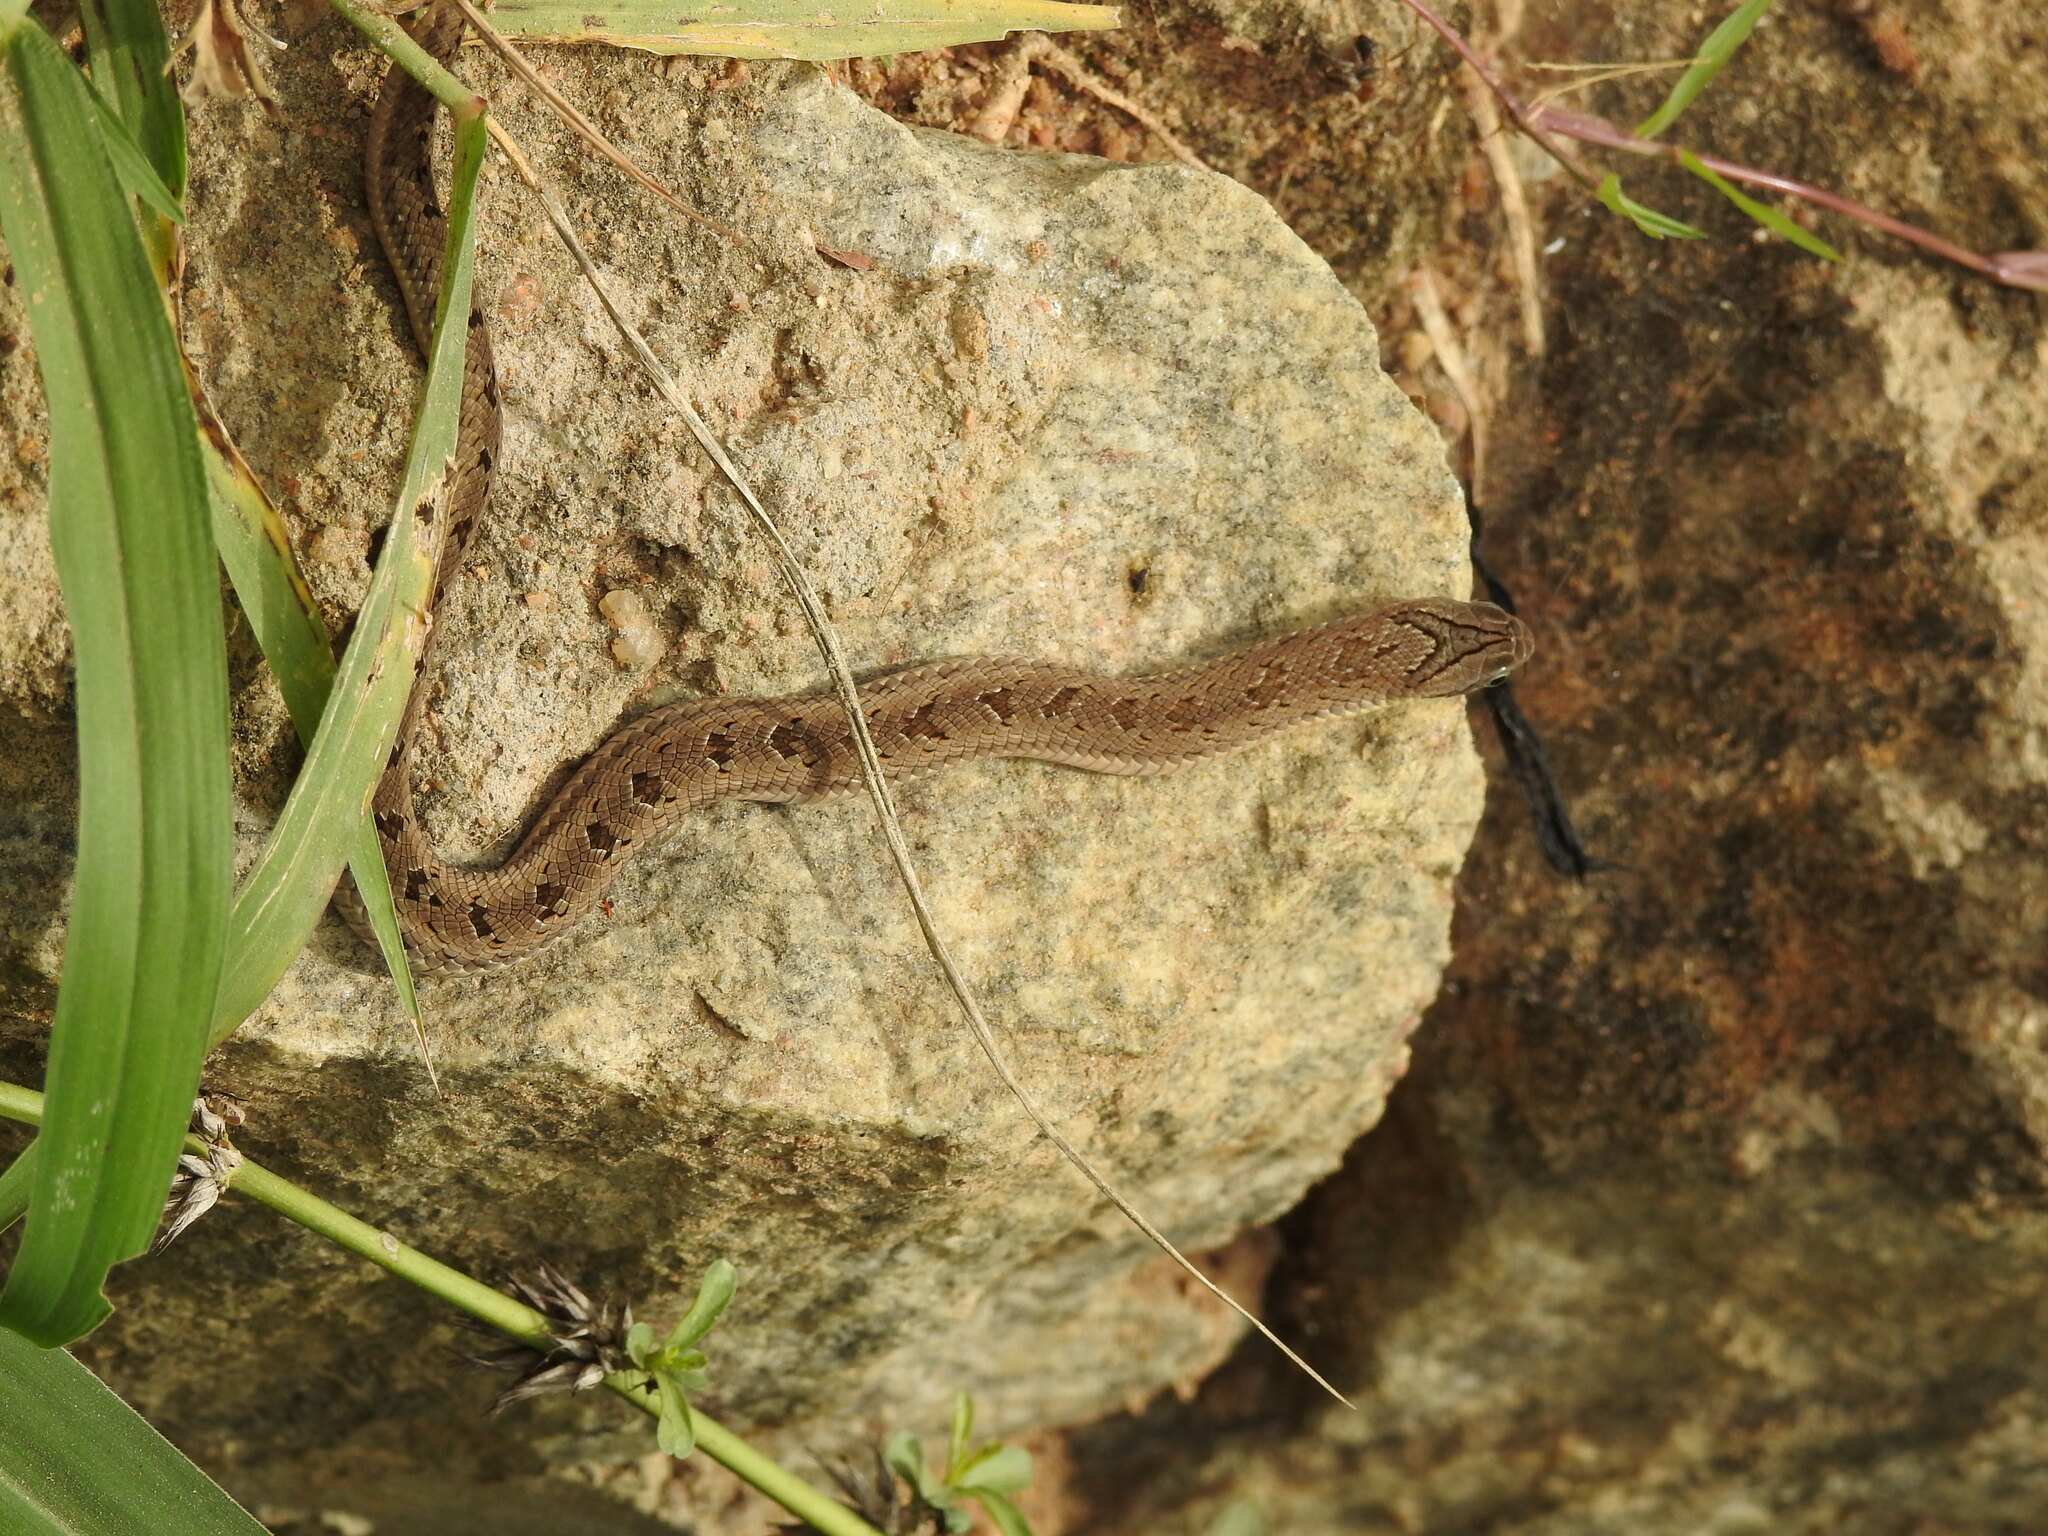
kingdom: Animalia
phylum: Chordata
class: Squamata
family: Viperidae
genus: Causus
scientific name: Causus maculatus
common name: Spotted night adder
